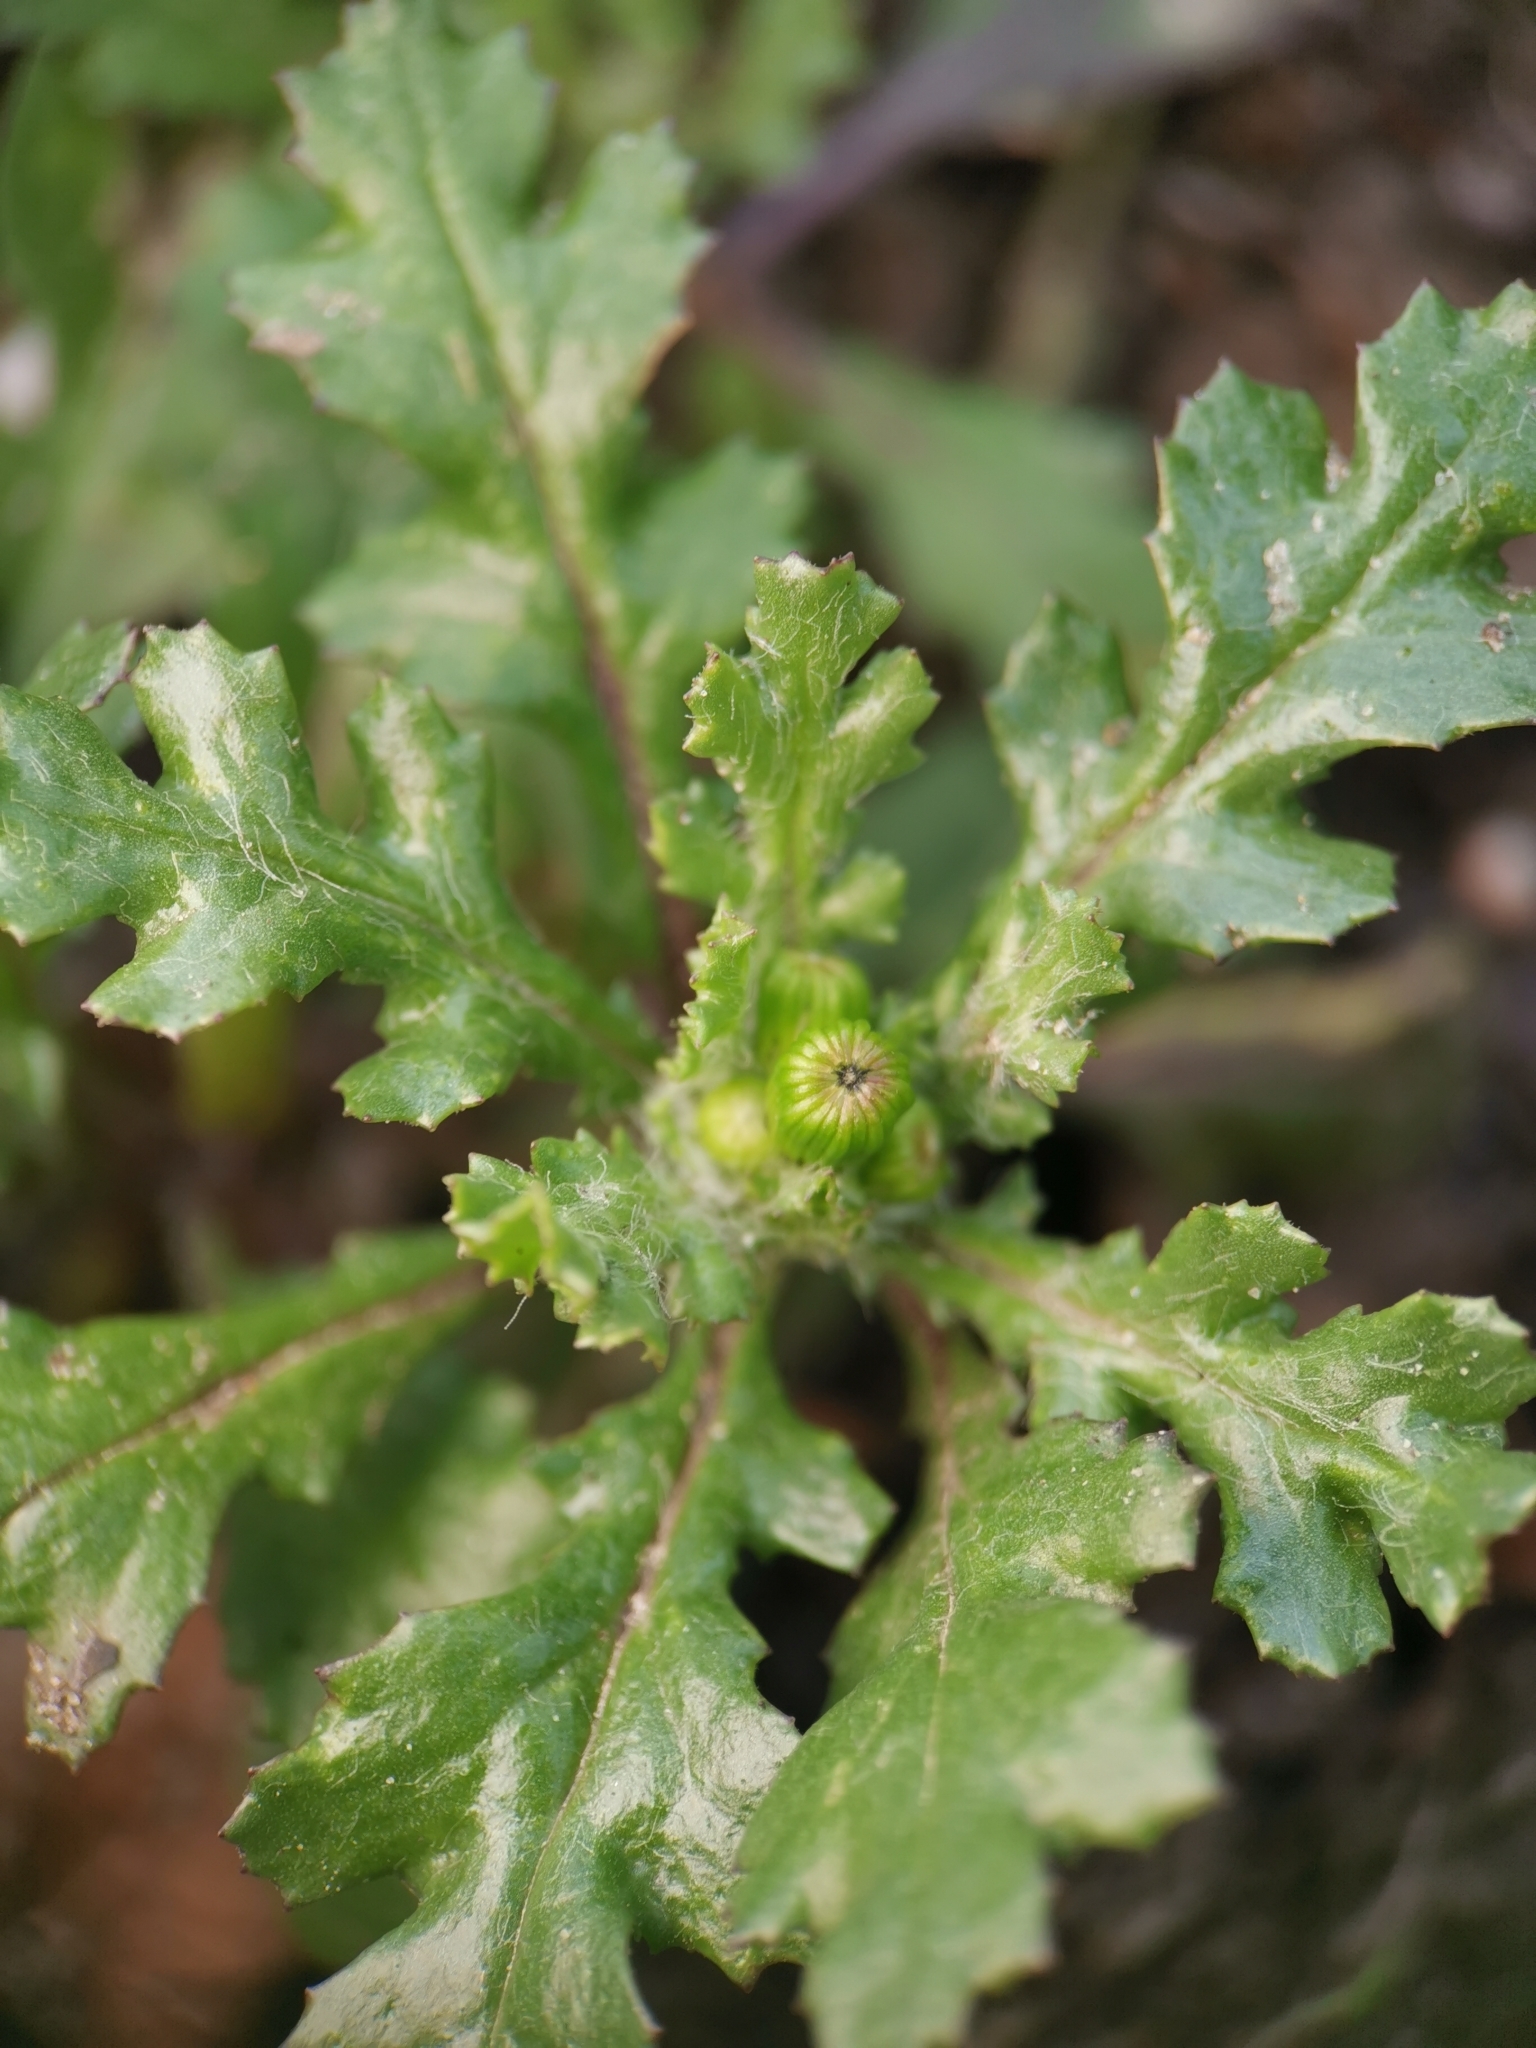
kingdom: Plantae
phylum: Tracheophyta
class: Magnoliopsida
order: Asterales
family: Asteraceae
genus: Senecio
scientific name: Senecio vulgaris
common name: Old-man-in-the-spring
